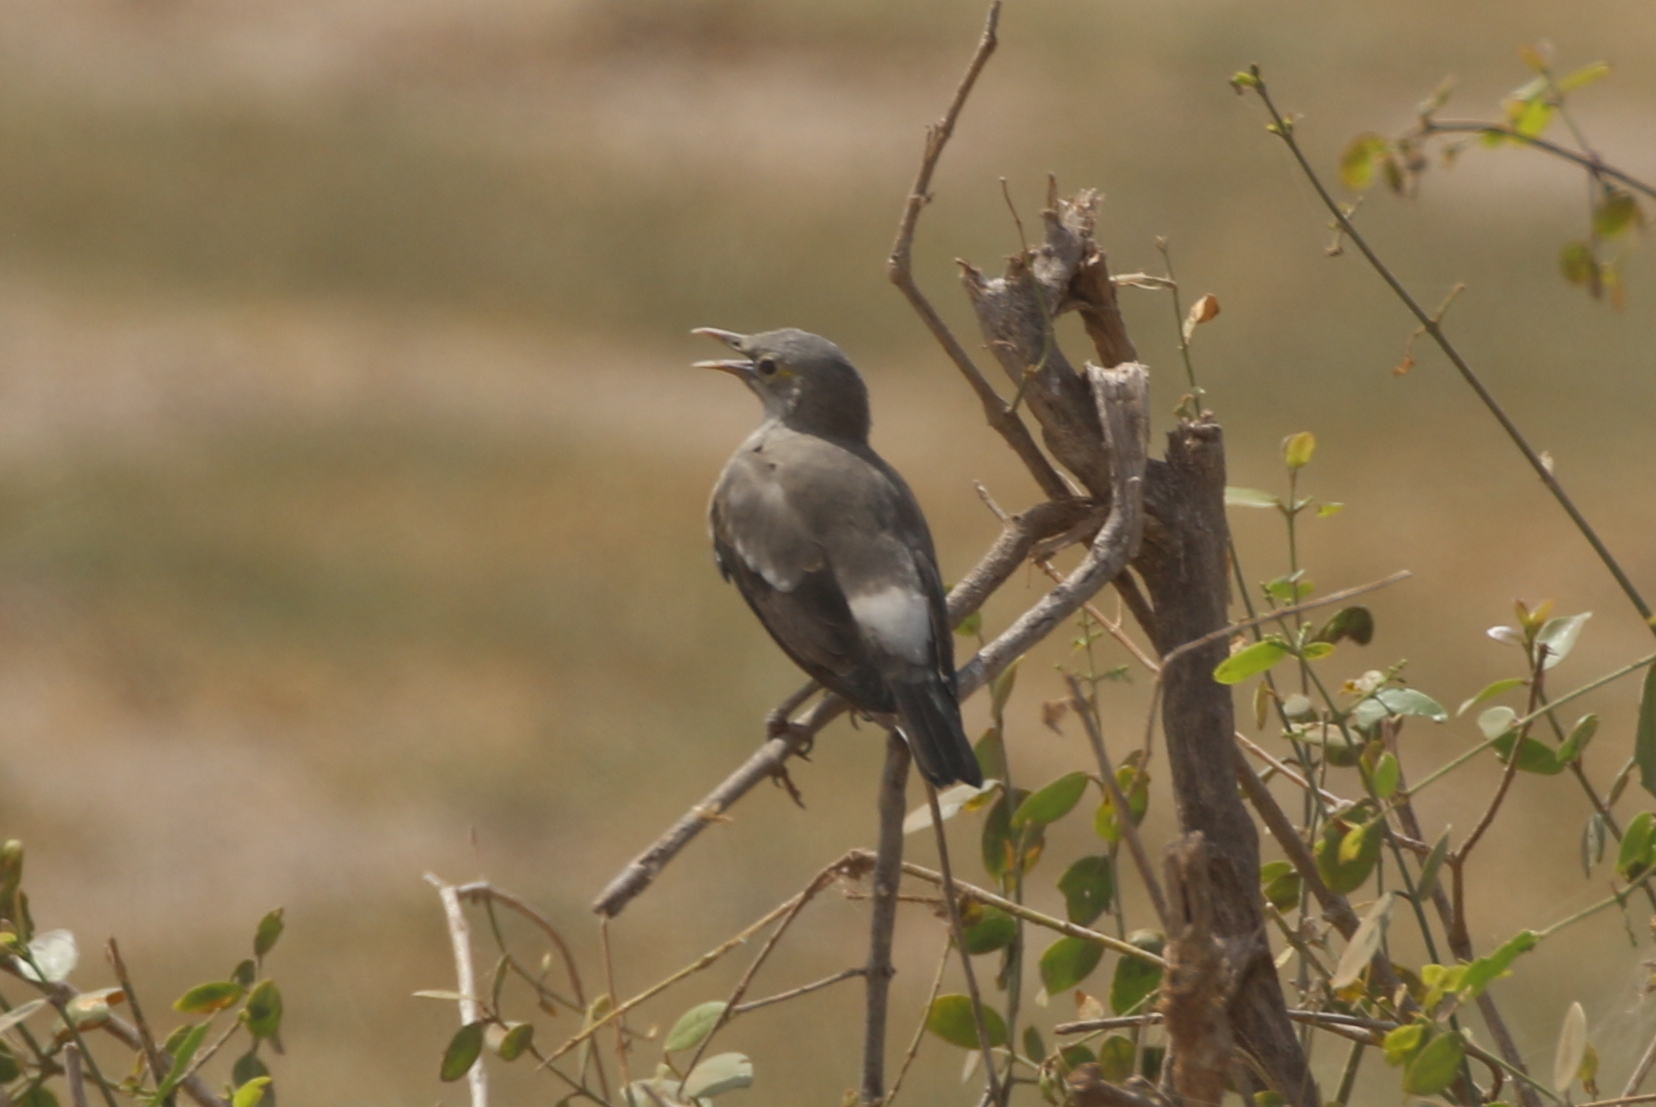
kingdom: Animalia
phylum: Chordata
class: Aves
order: Passeriformes
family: Sturnidae
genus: Creatophora
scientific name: Creatophora cinerea
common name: Wattled starling
